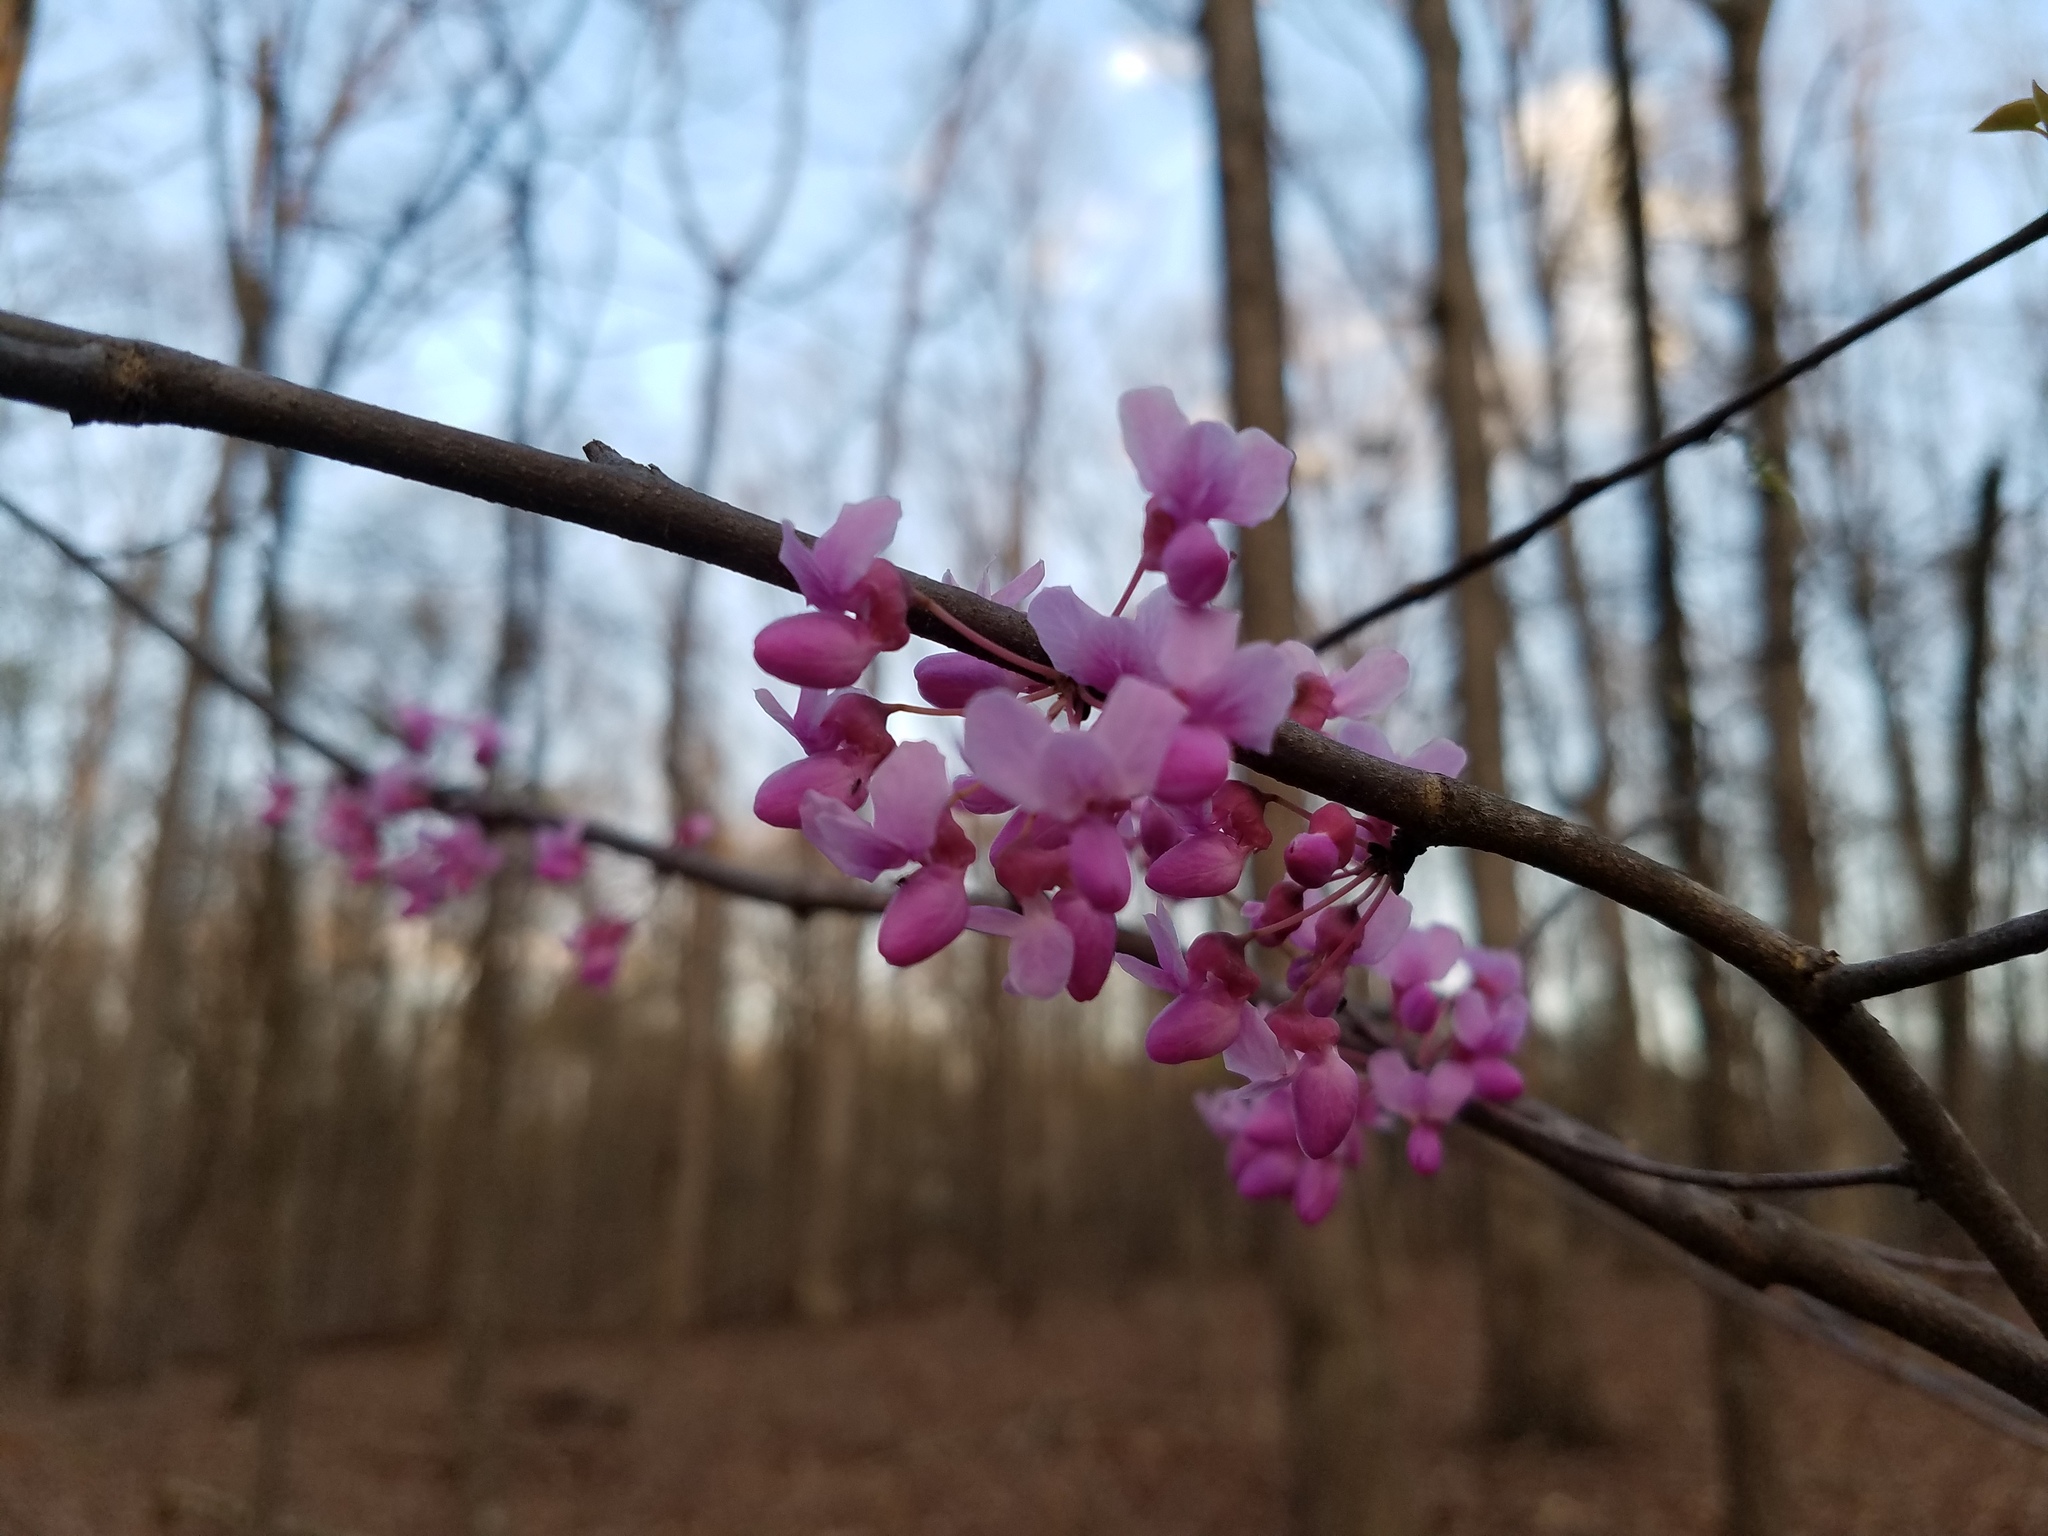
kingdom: Plantae
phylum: Tracheophyta
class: Magnoliopsida
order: Fabales
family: Fabaceae
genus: Cercis
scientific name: Cercis canadensis
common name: Eastern redbud
